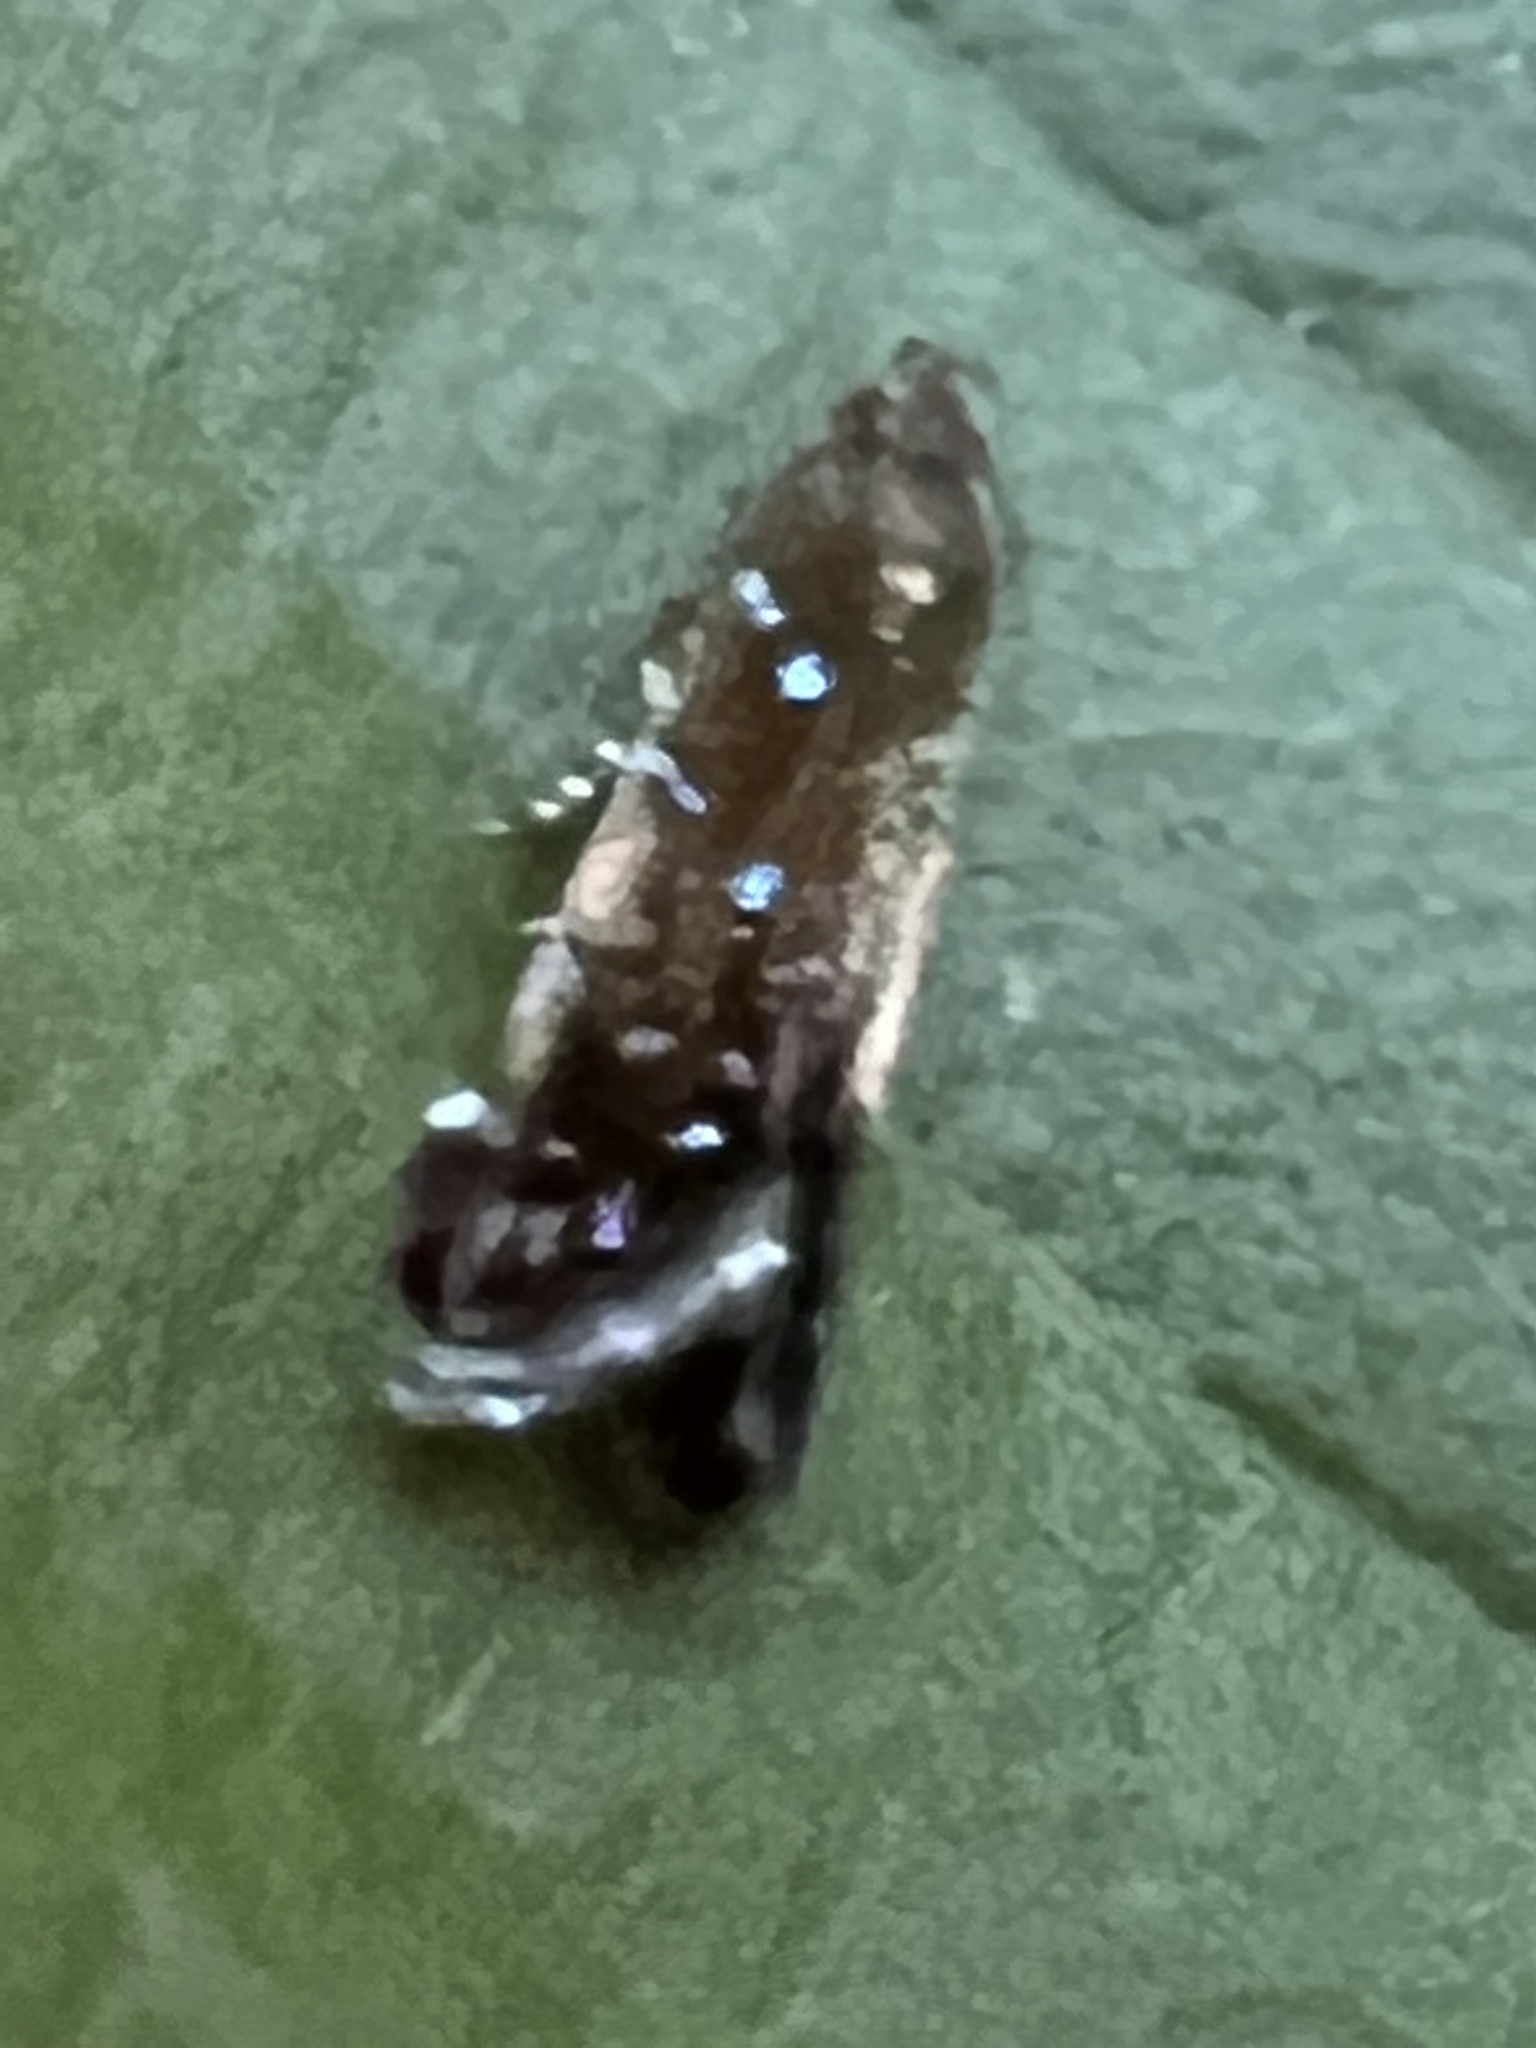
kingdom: Animalia
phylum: Arthropoda
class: Insecta
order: Lepidoptera
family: Gelechiidae
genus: Strobisia
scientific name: Strobisia iridipennella
